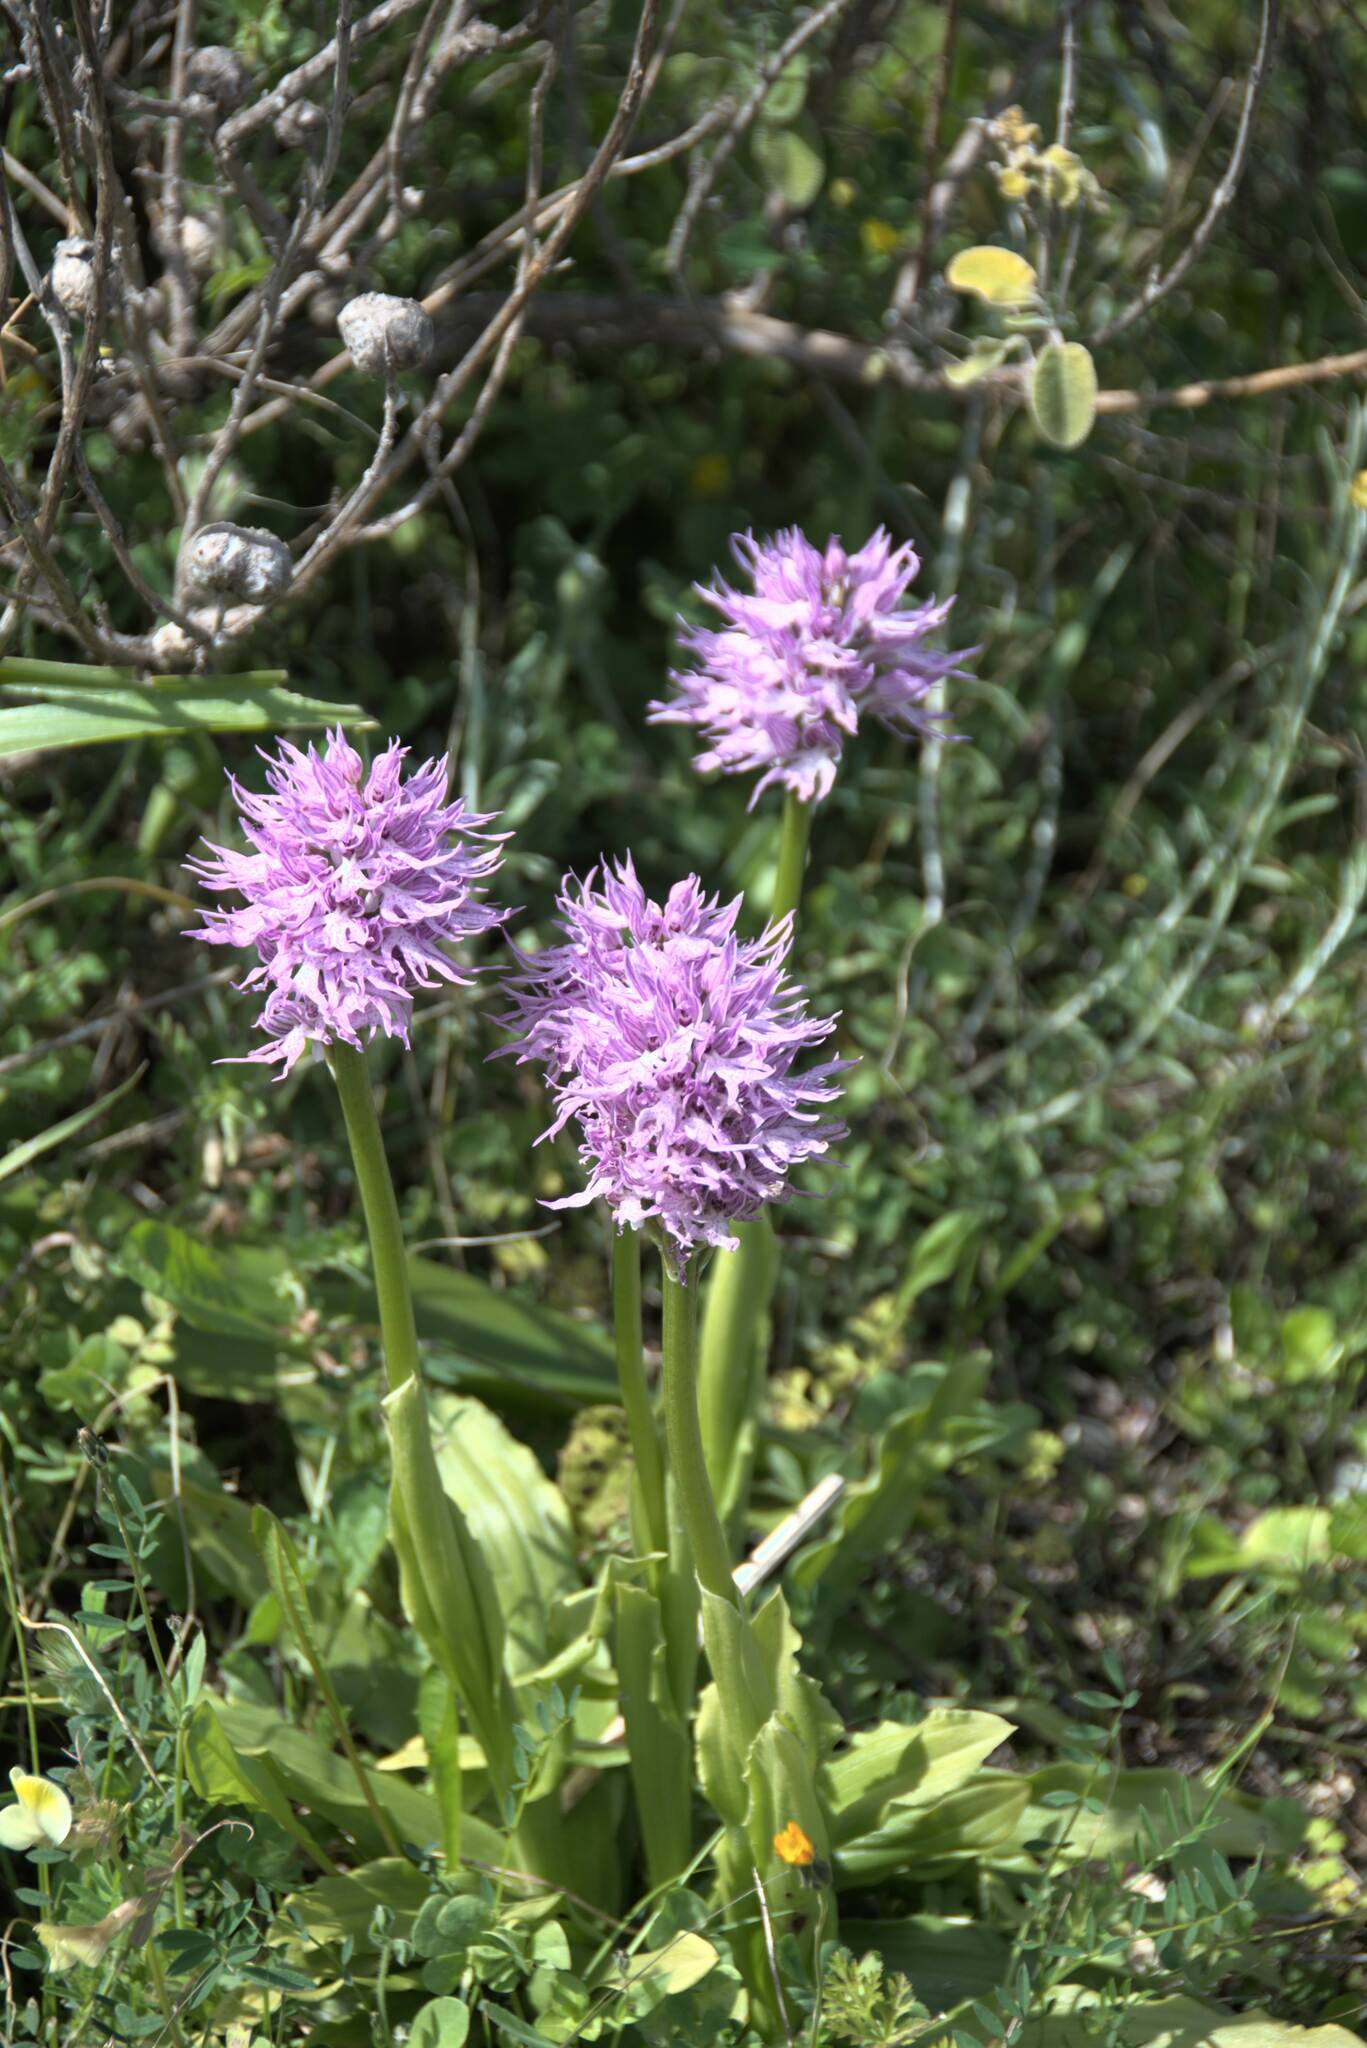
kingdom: Plantae
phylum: Tracheophyta
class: Liliopsida
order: Asparagales
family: Orchidaceae
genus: Orchis
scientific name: Orchis italica
